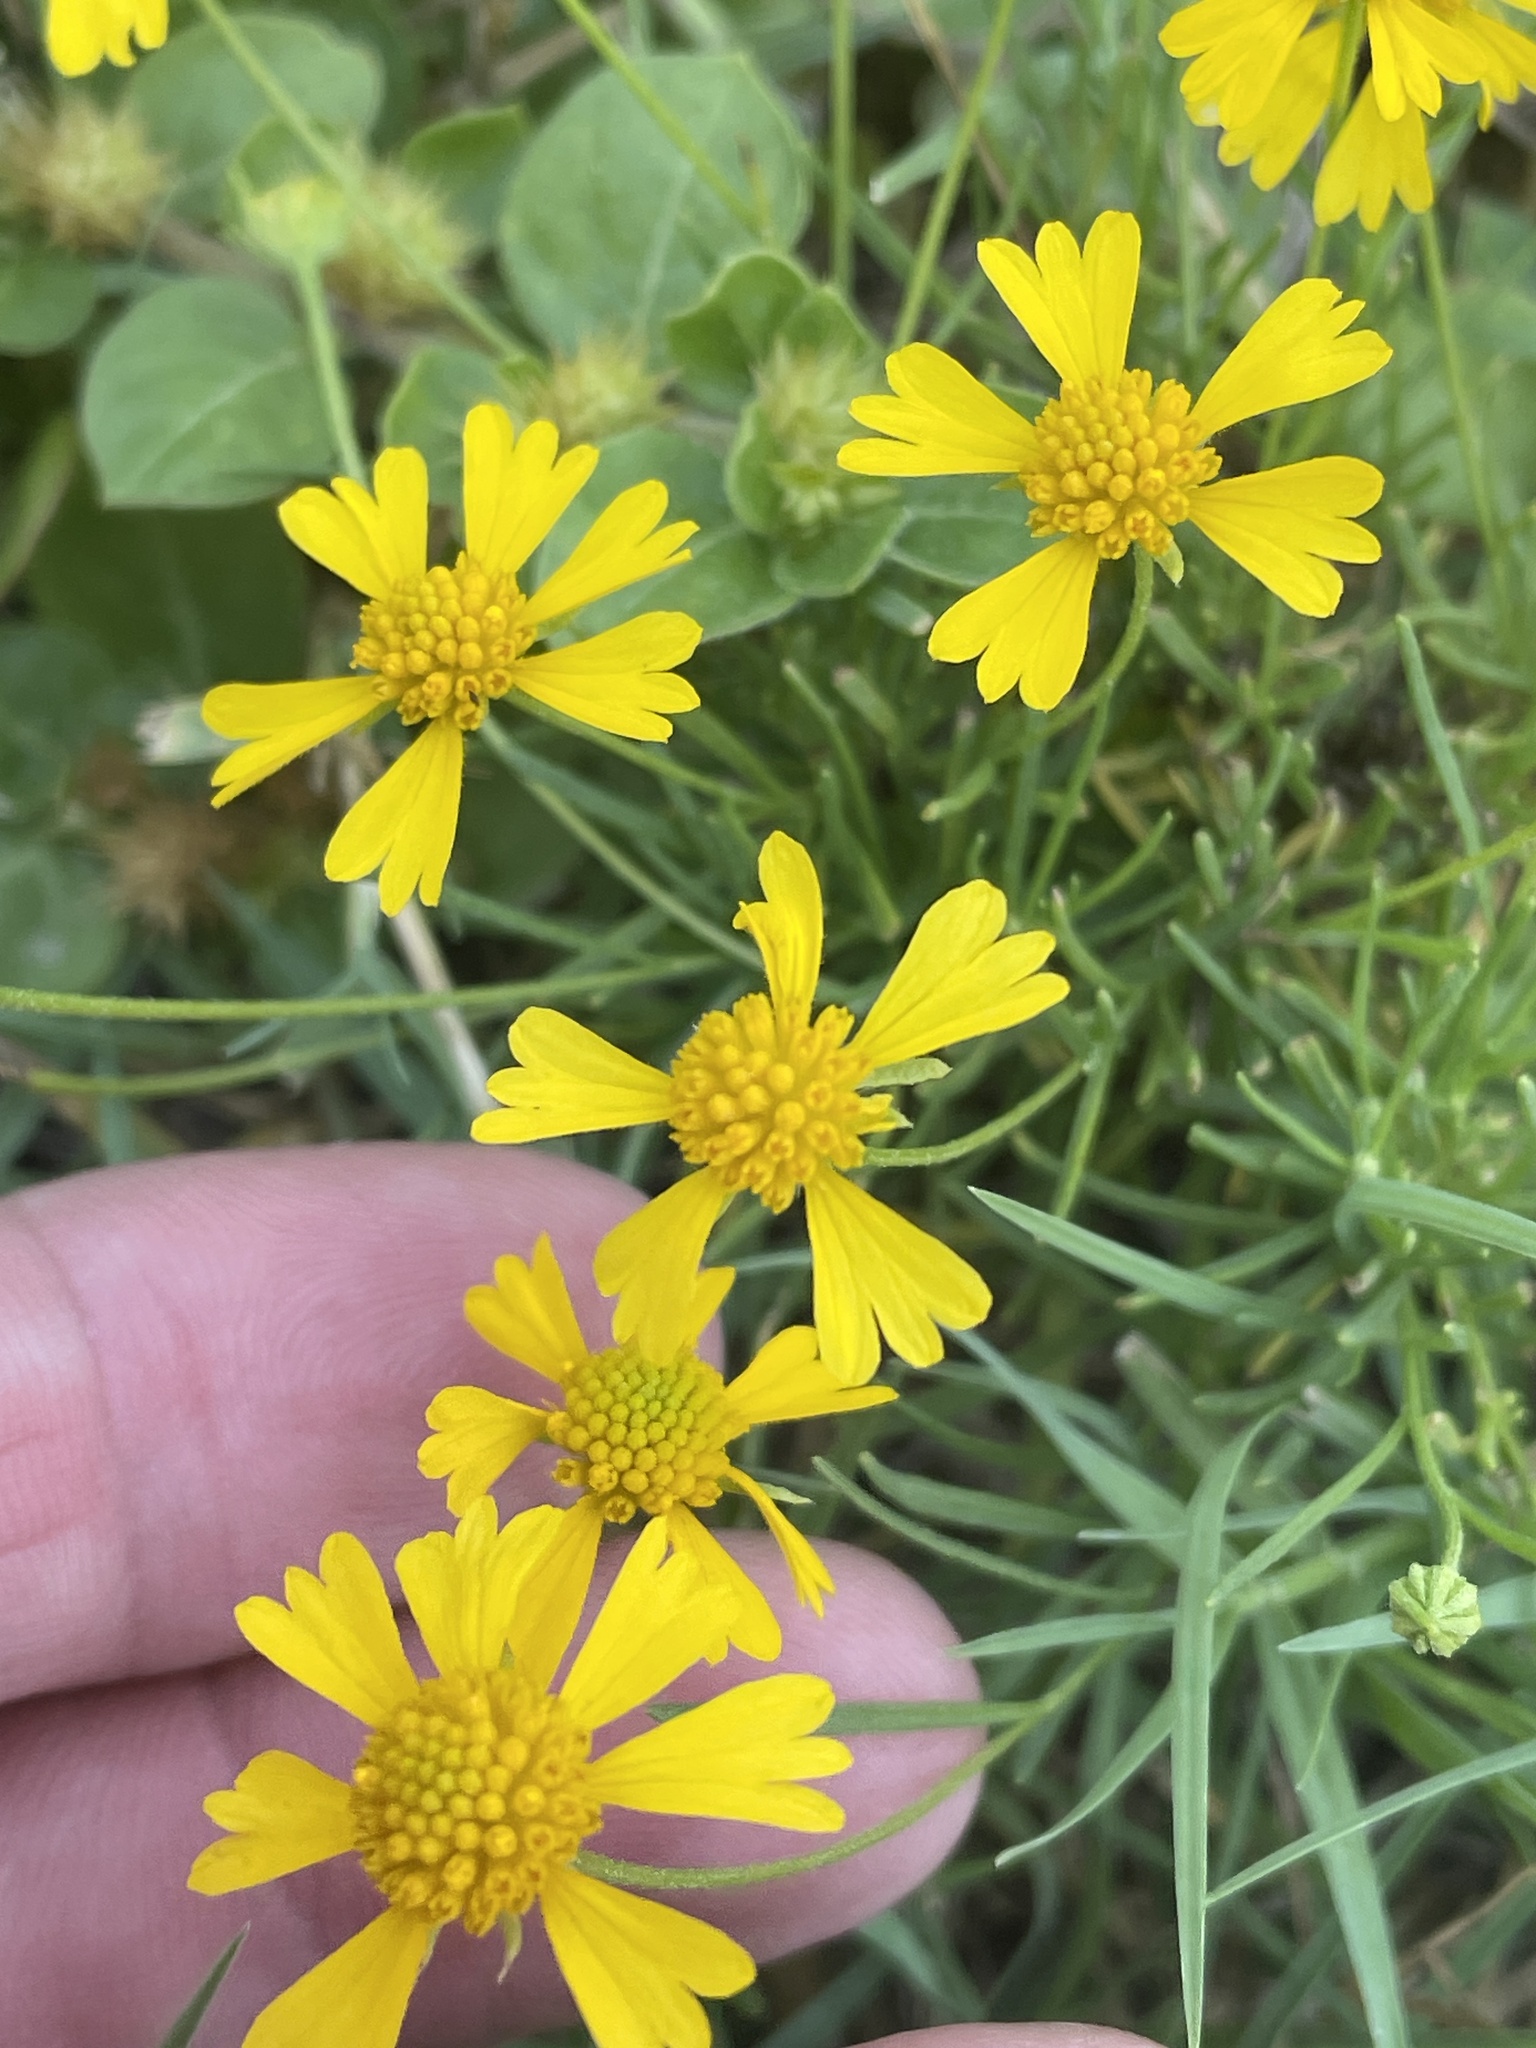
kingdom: Plantae
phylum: Tracheophyta
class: Magnoliopsida
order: Asterales
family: Asteraceae
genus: Helenium
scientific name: Helenium amarum
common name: Bitter sneezeweed
